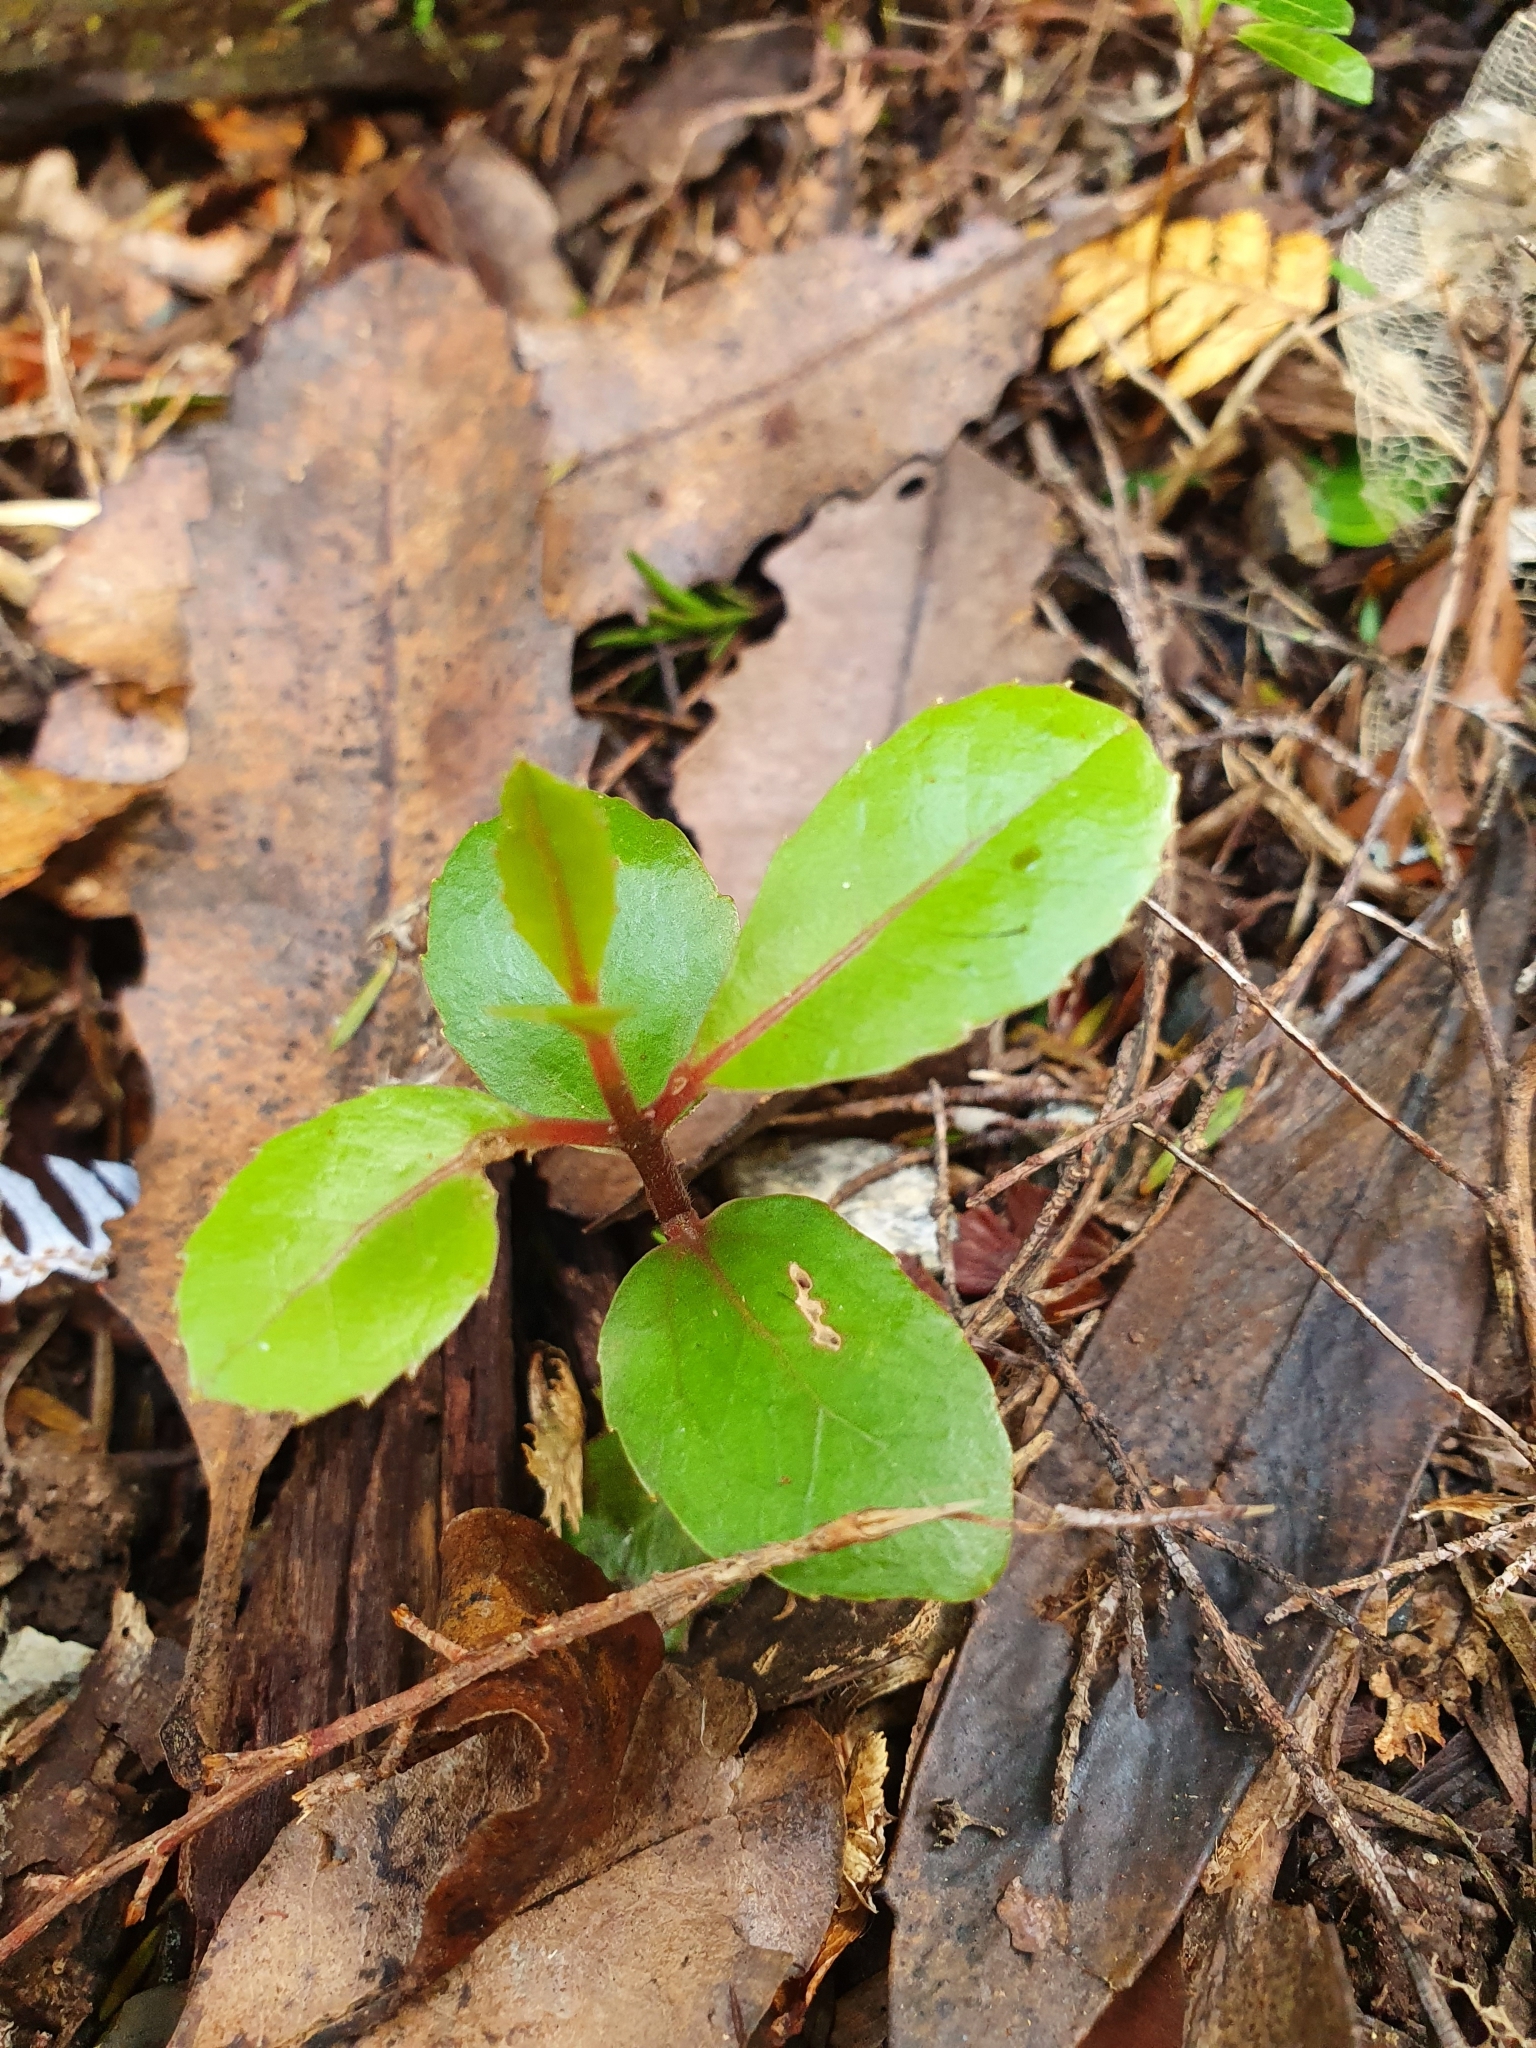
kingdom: Plantae
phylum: Tracheophyta
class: Magnoliopsida
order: Laurales
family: Monimiaceae
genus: Hedycarya
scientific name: Hedycarya arborea
